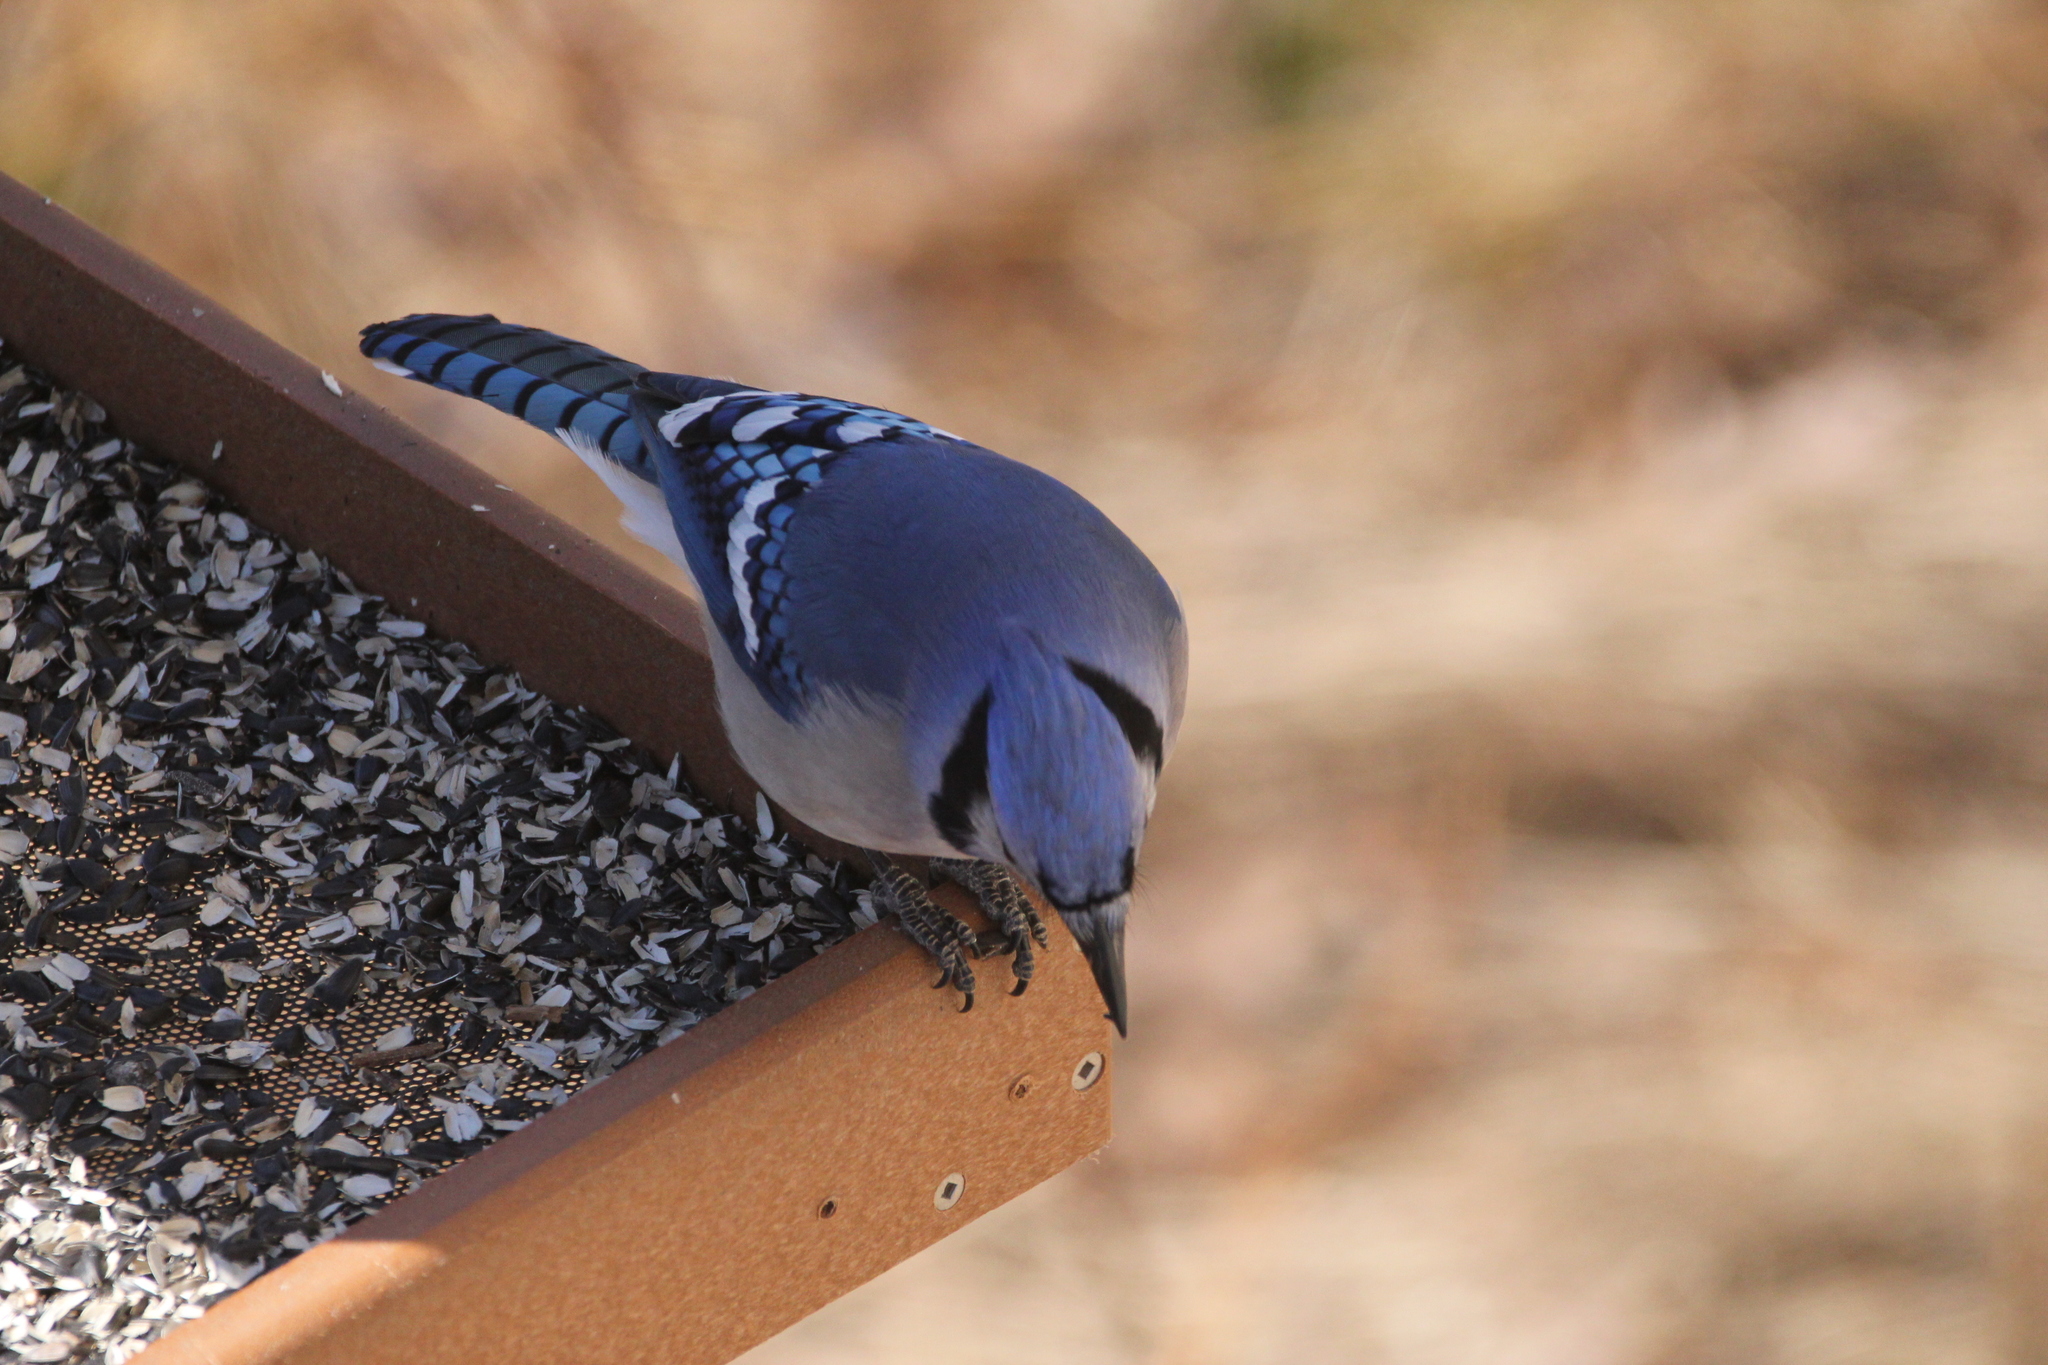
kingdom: Animalia
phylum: Chordata
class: Aves
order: Passeriformes
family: Corvidae
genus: Cyanocitta
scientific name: Cyanocitta cristata
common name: Blue jay
